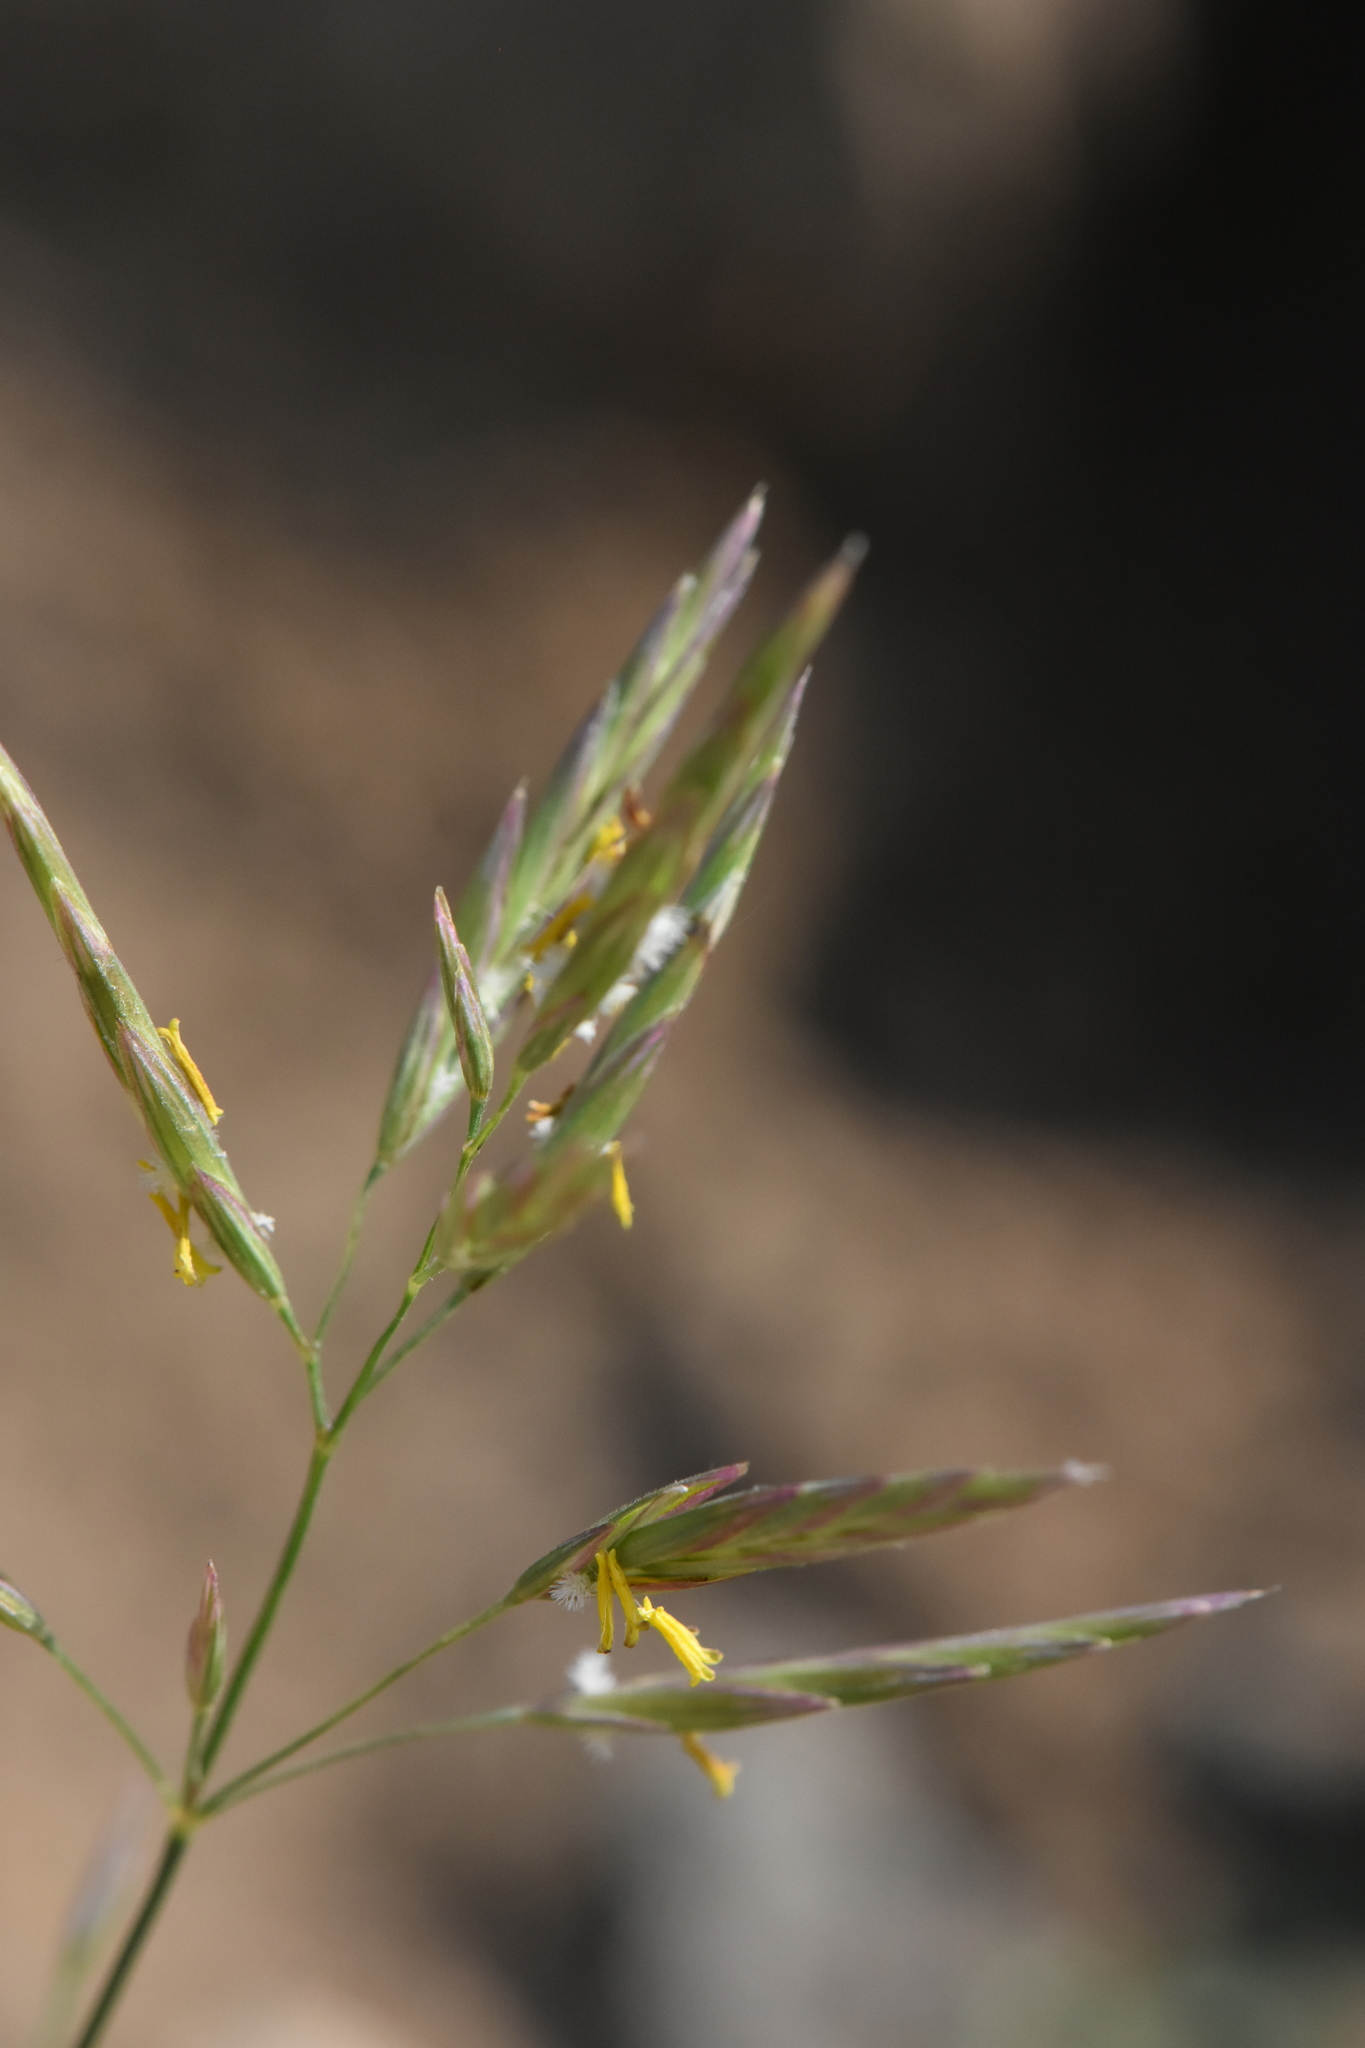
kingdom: Plantae
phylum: Tracheophyta
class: Liliopsida
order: Poales
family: Poaceae
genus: Bromus
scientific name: Bromus inermis
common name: Smooth brome
